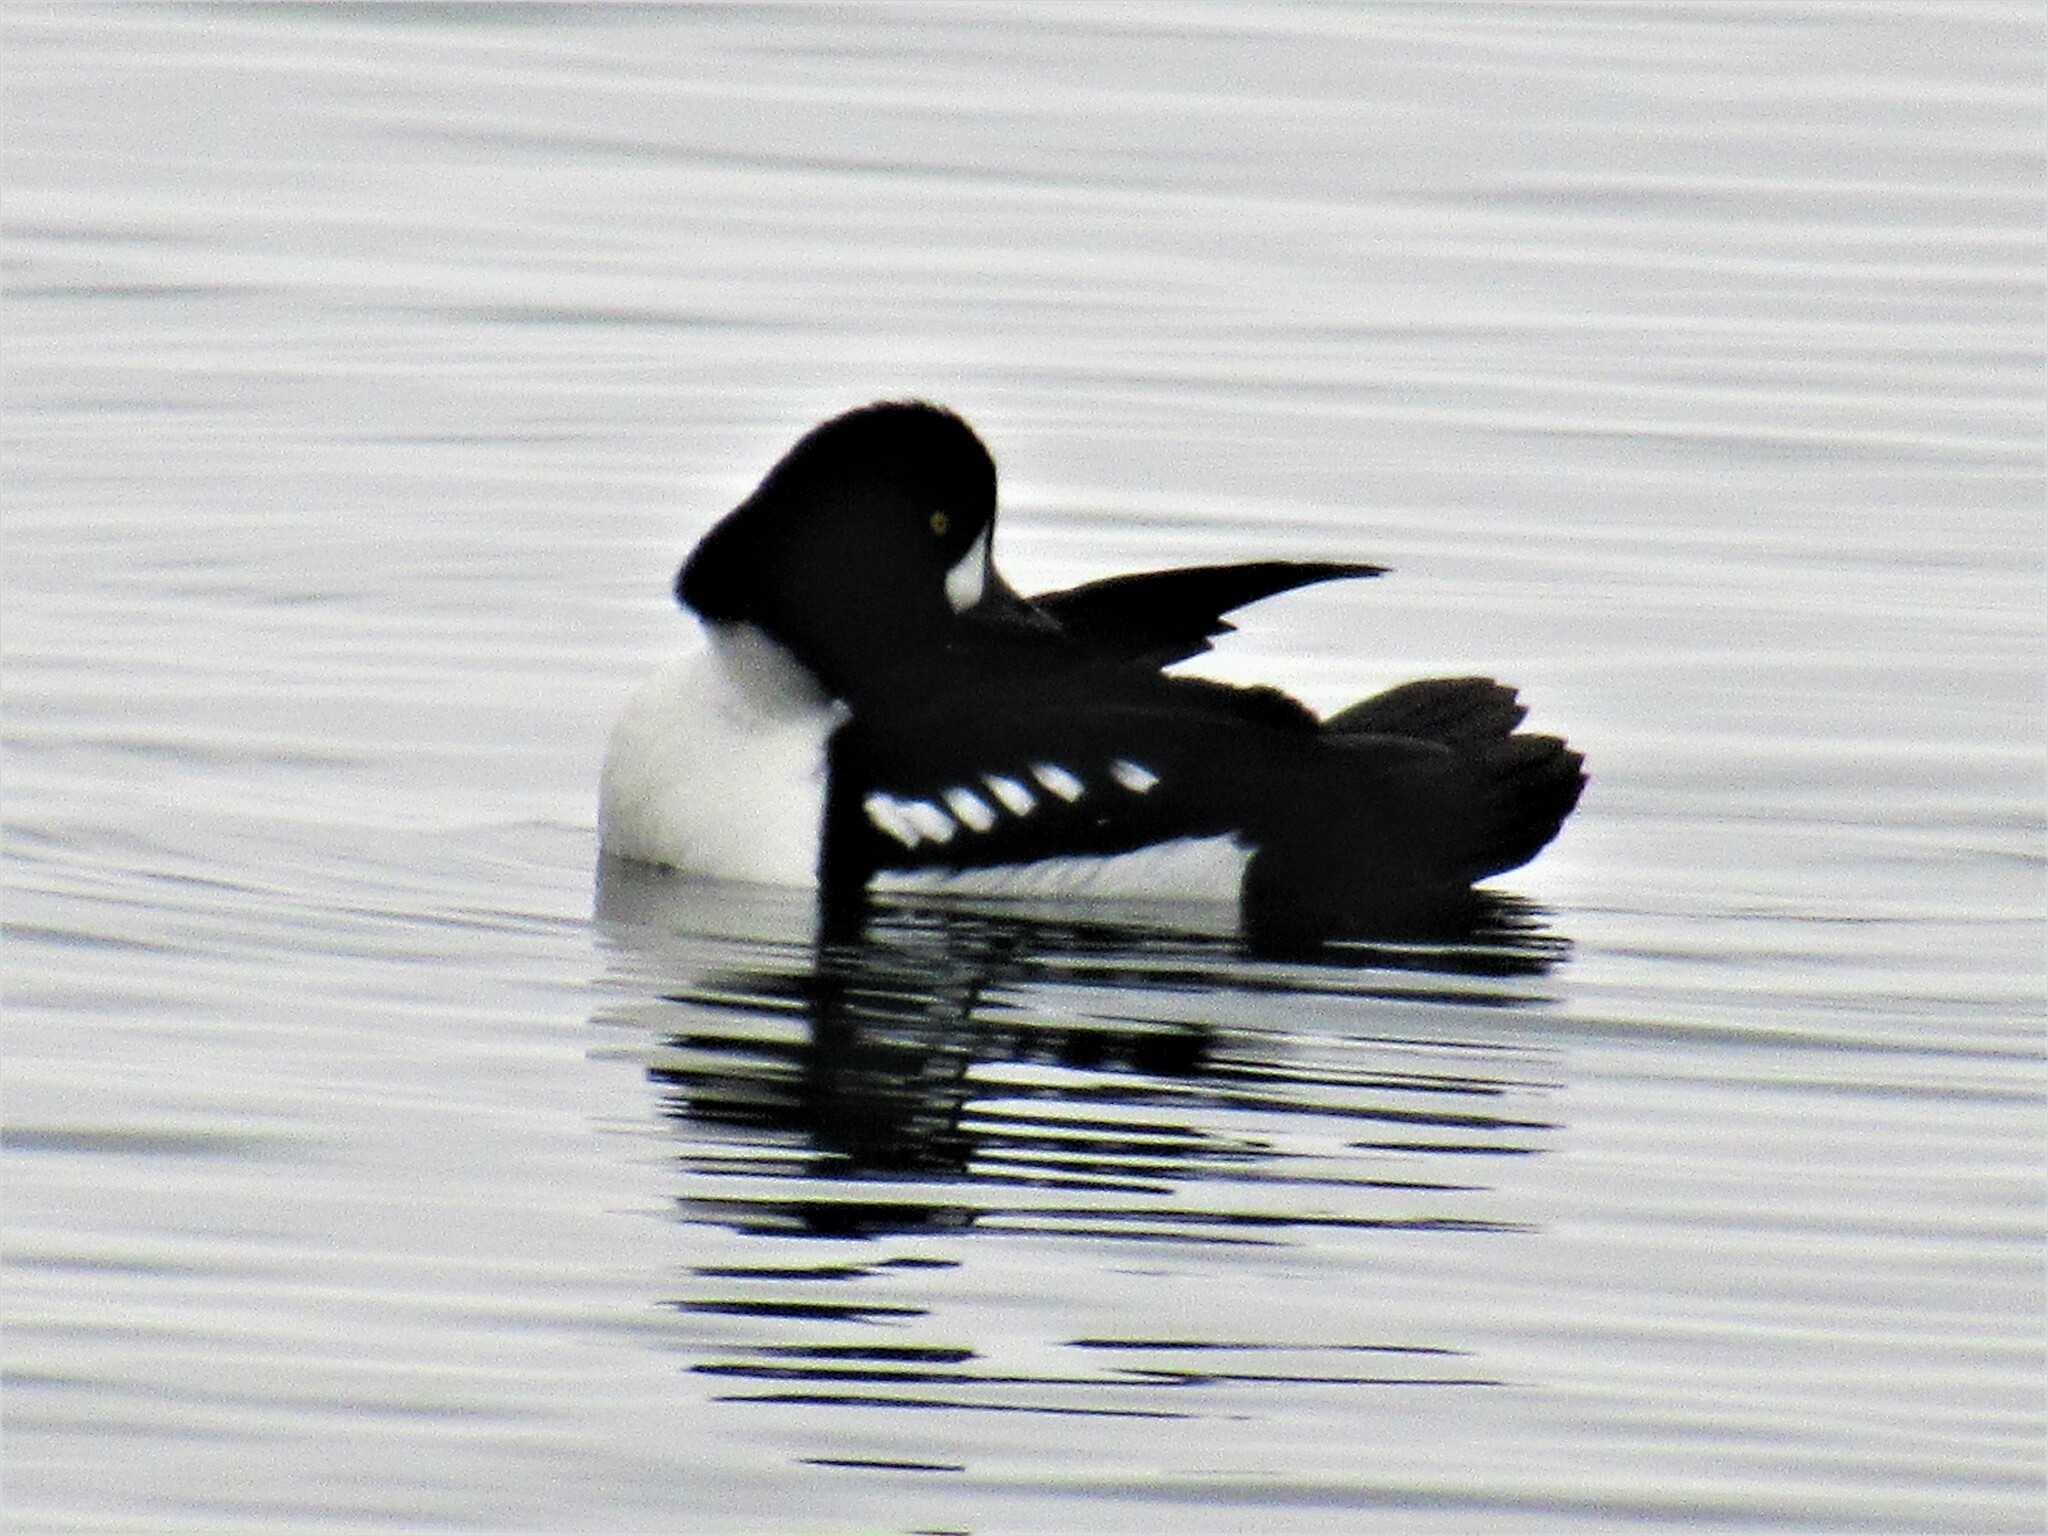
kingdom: Animalia
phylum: Chordata
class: Aves
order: Anseriformes
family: Anatidae
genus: Bucephala
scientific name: Bucephala islandica
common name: Barrow's goldeneye
